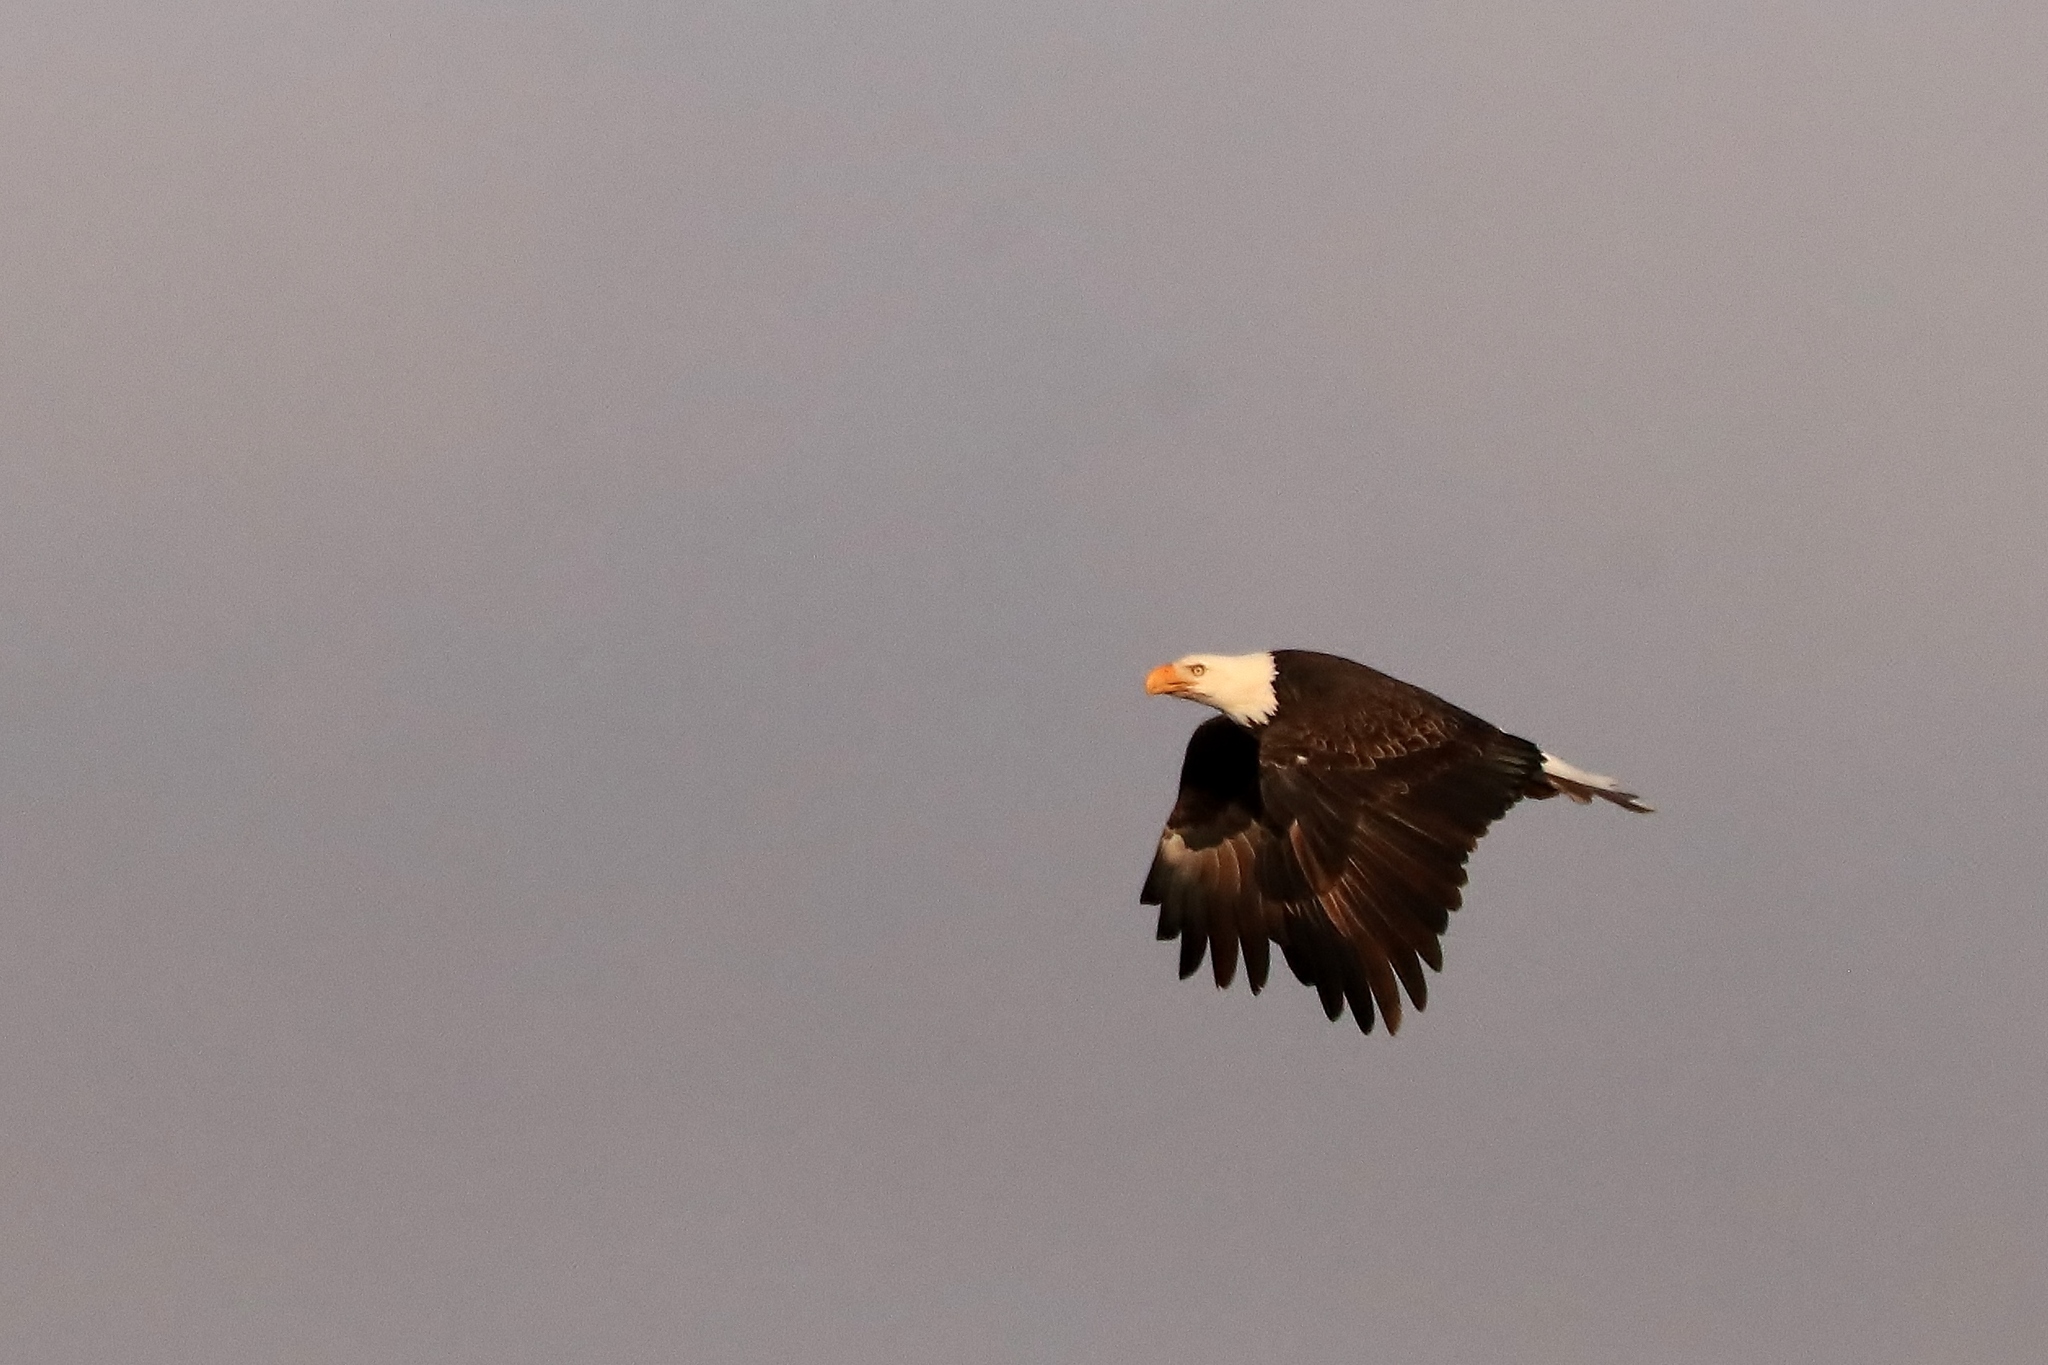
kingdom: Animalia
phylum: Chordata
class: Aves
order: Accipitriformes
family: Accipitridae
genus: Haliaeetus
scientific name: Haliaeetus leucocephalus
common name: Bald eagle
